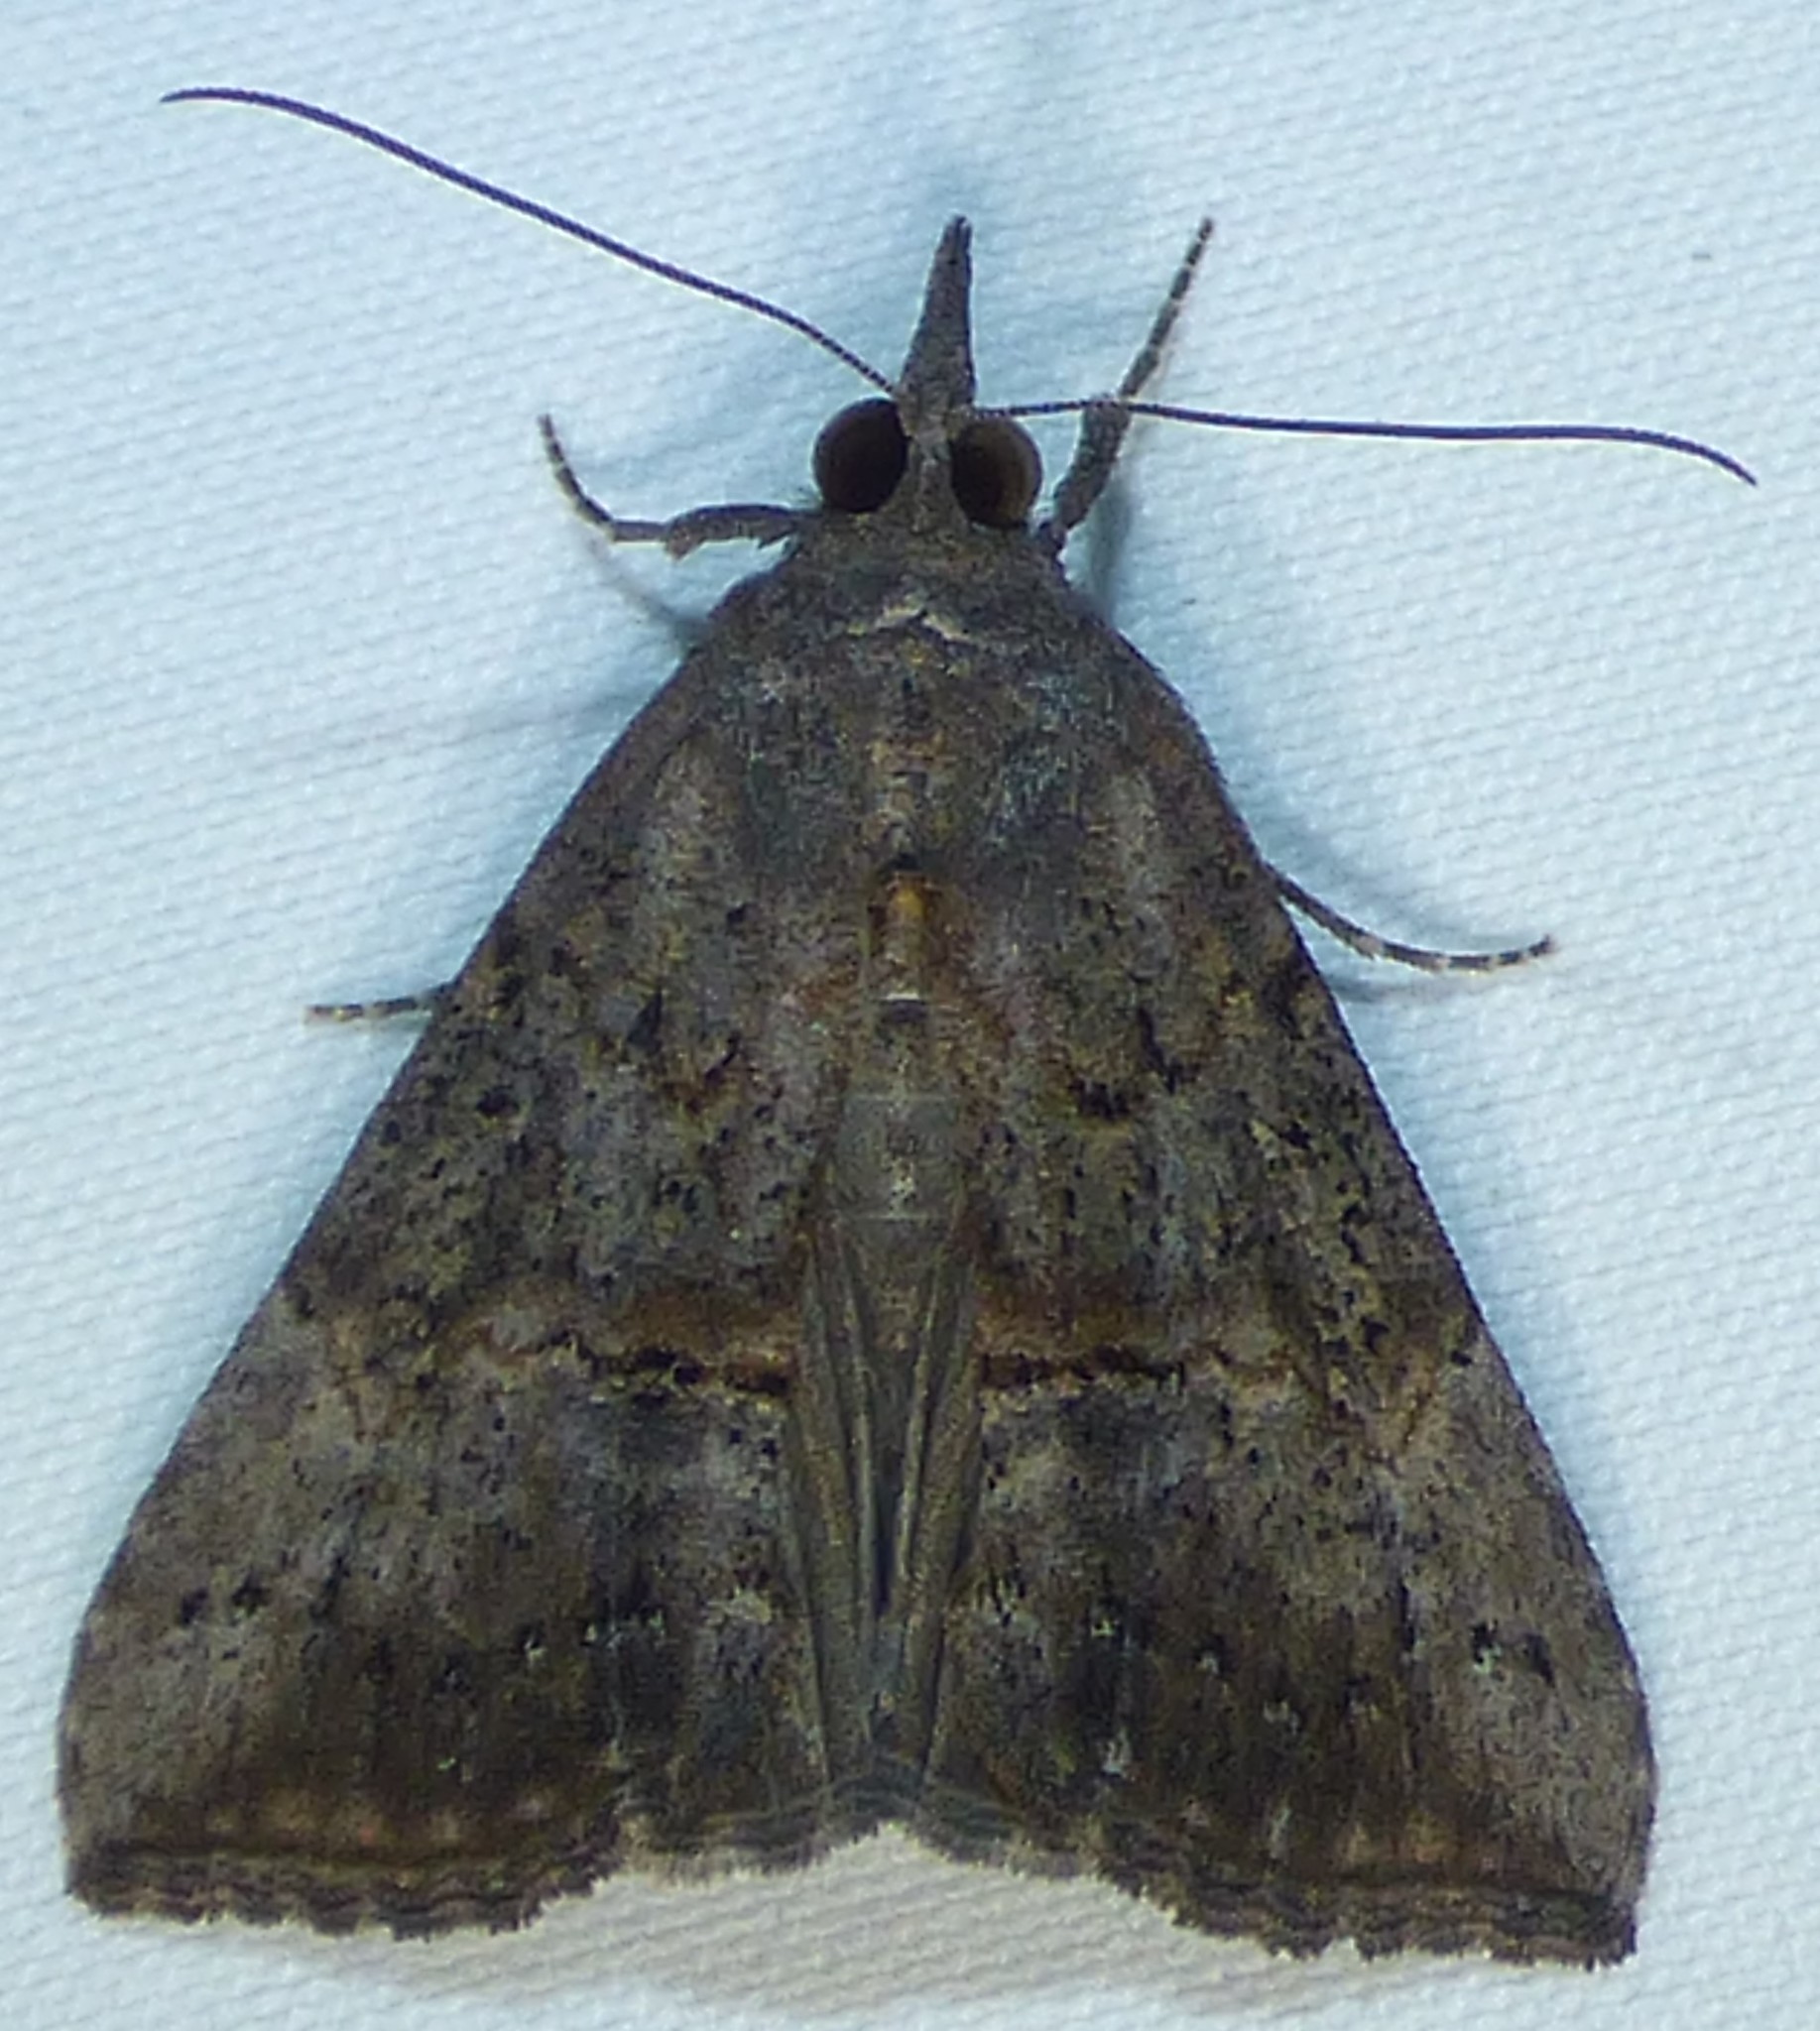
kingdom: Animalia
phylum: Arthropoda
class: Insecta
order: Lepidoptera
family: Erebidae
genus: Hypena
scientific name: Hypena scabra
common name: Green cloverworm
